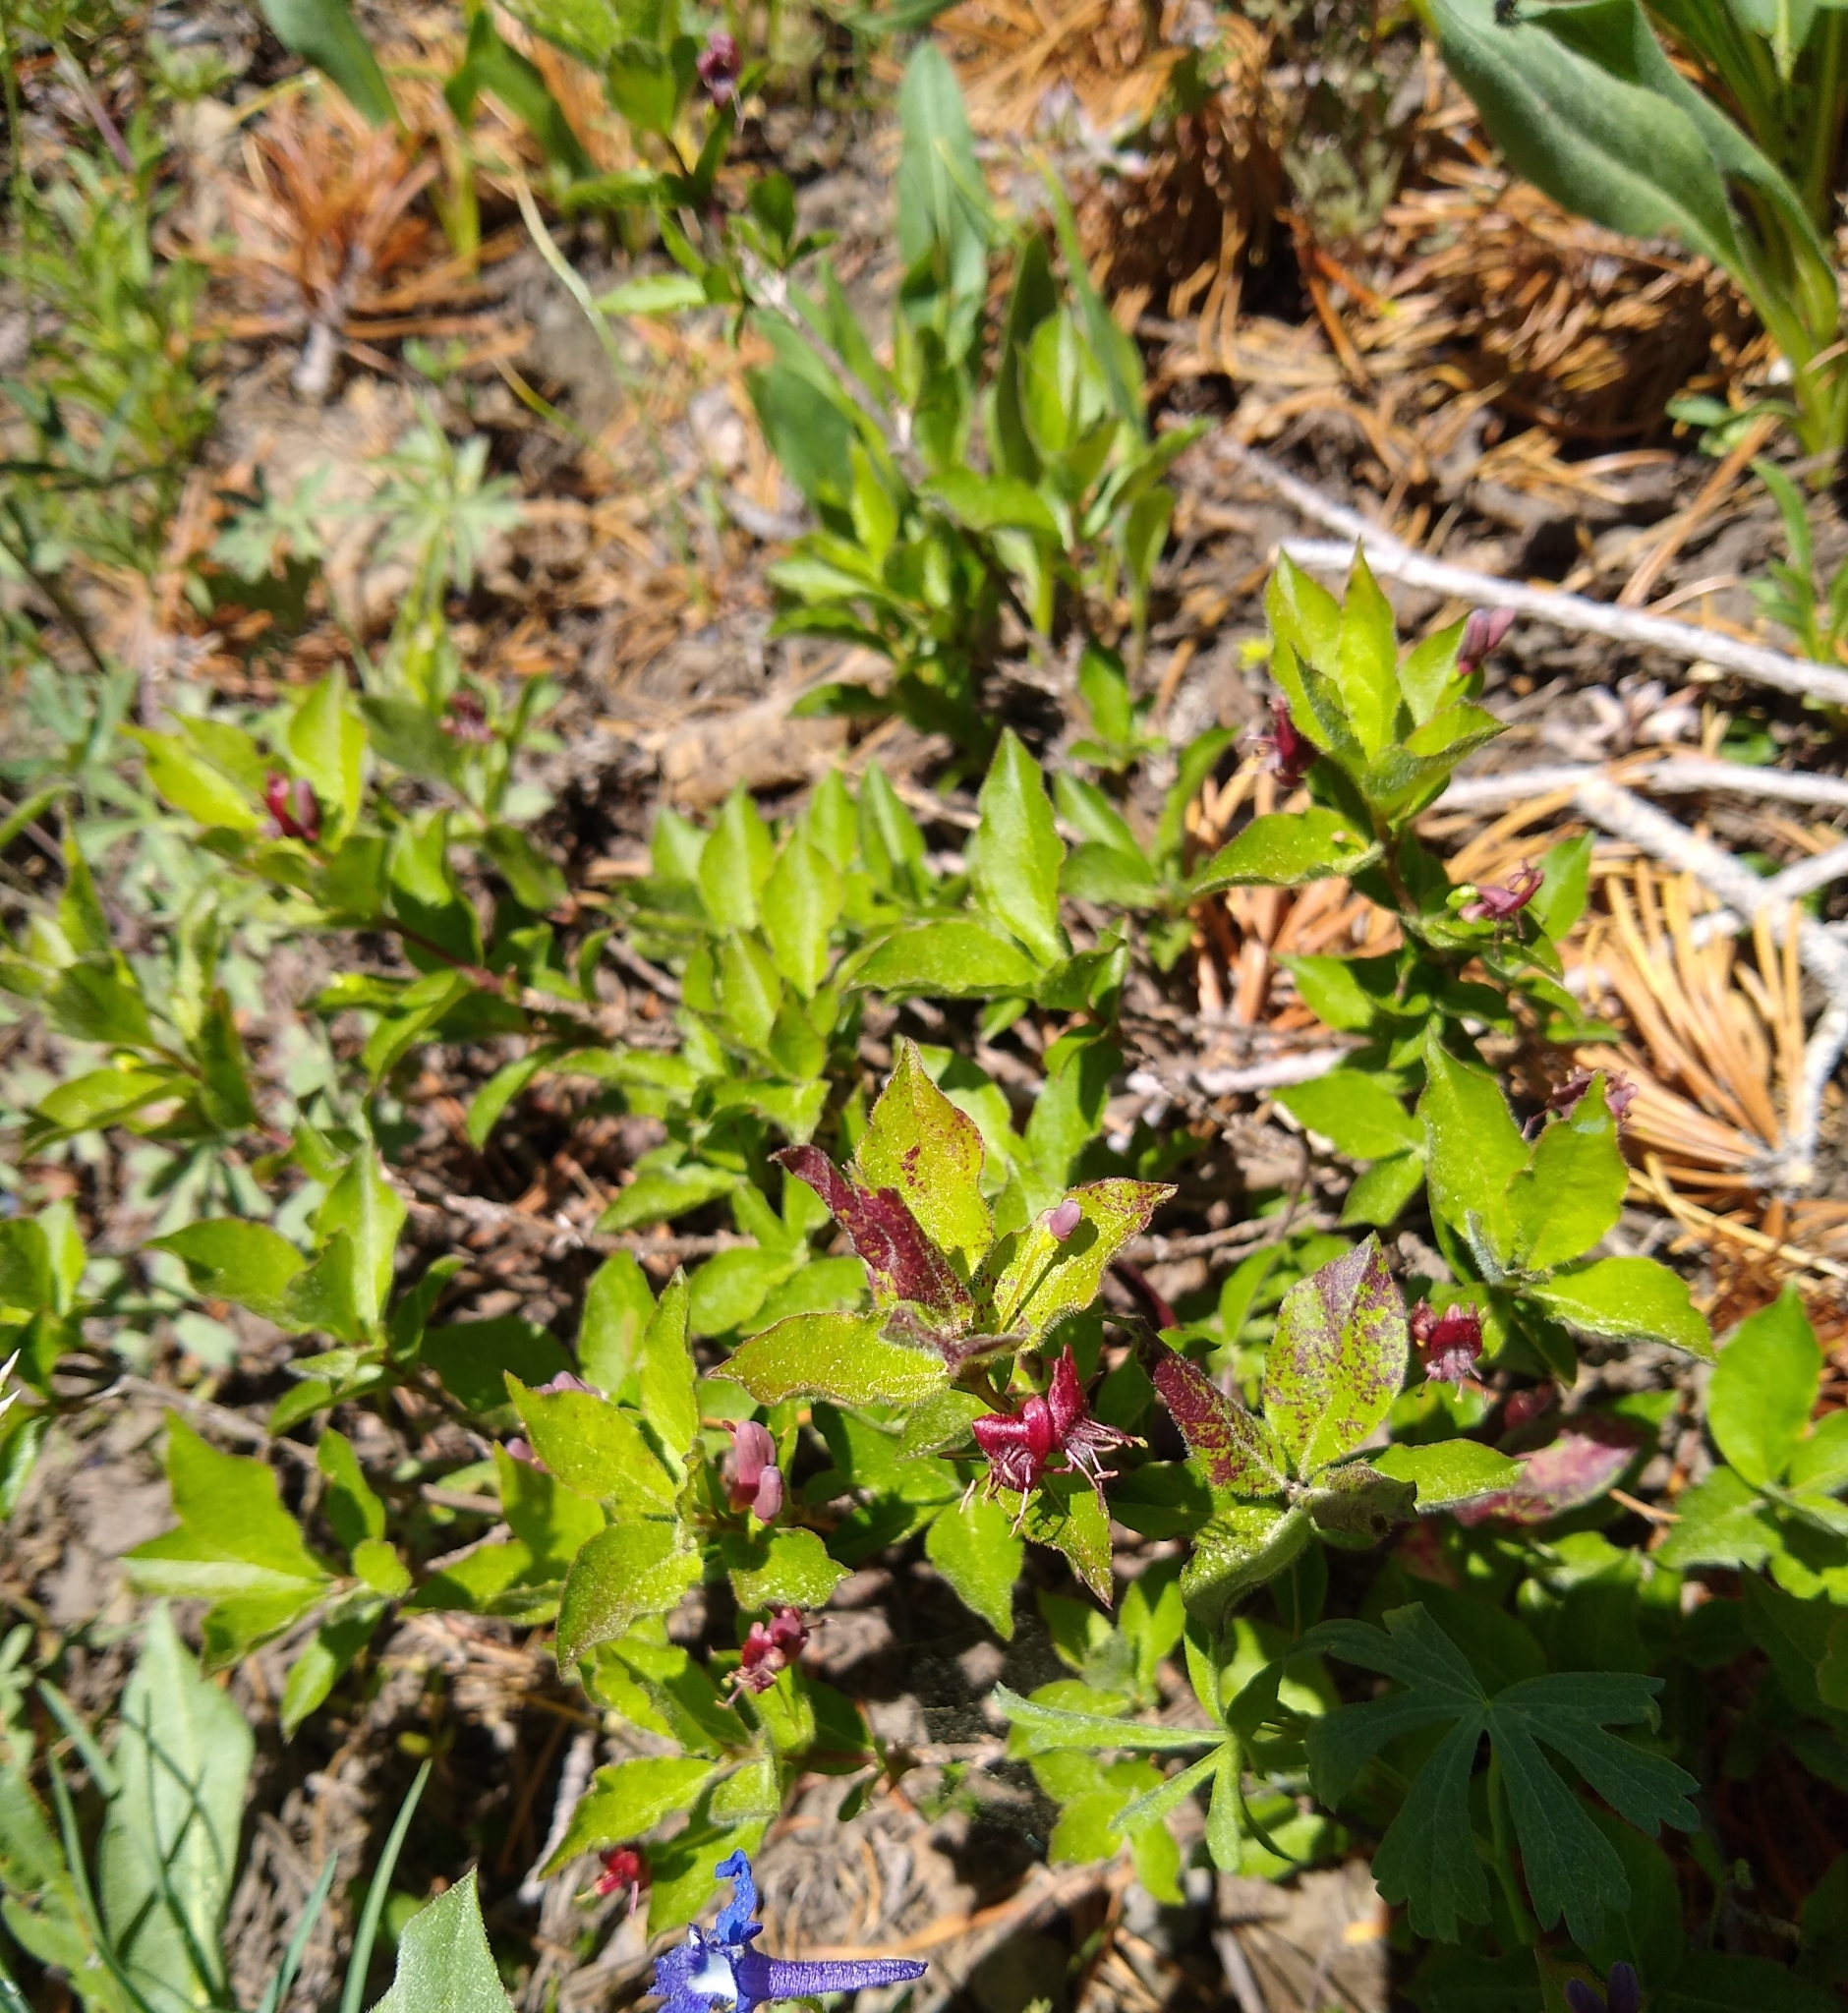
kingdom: Plantae
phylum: Tracheophyta
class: Magnoliopsida
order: Dipsacales
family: Caprifoliaceae
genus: Lonicera
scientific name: Lonicera conjugialis
